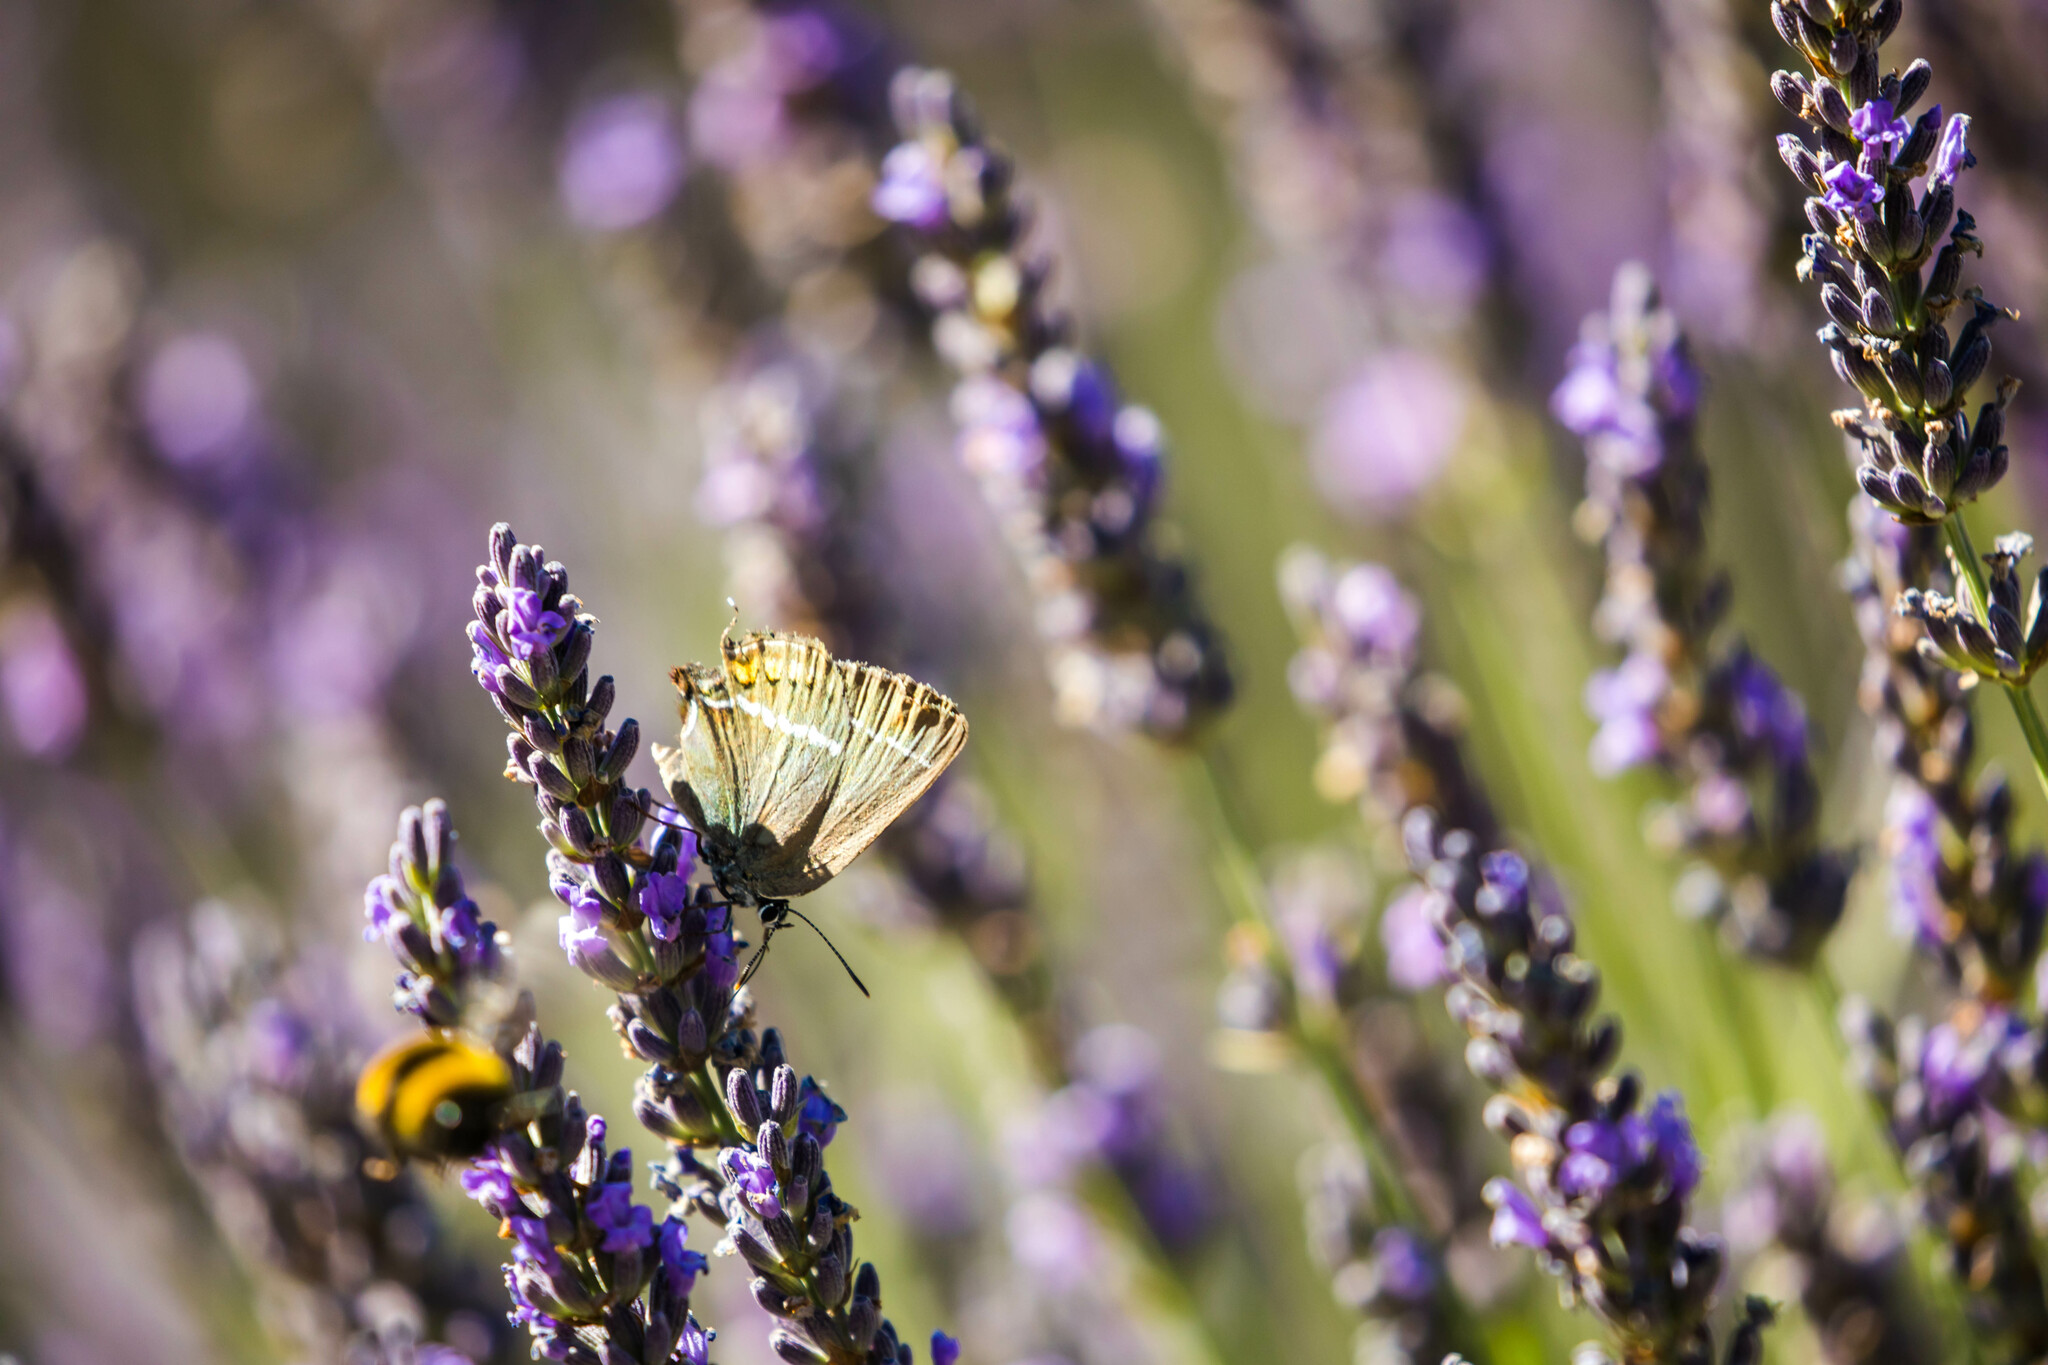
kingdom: Animalia
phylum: Arthropoda
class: Insecta
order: Lepidoptera
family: Lycaenidae
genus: Tuttiola
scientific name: Tuttiola spini
